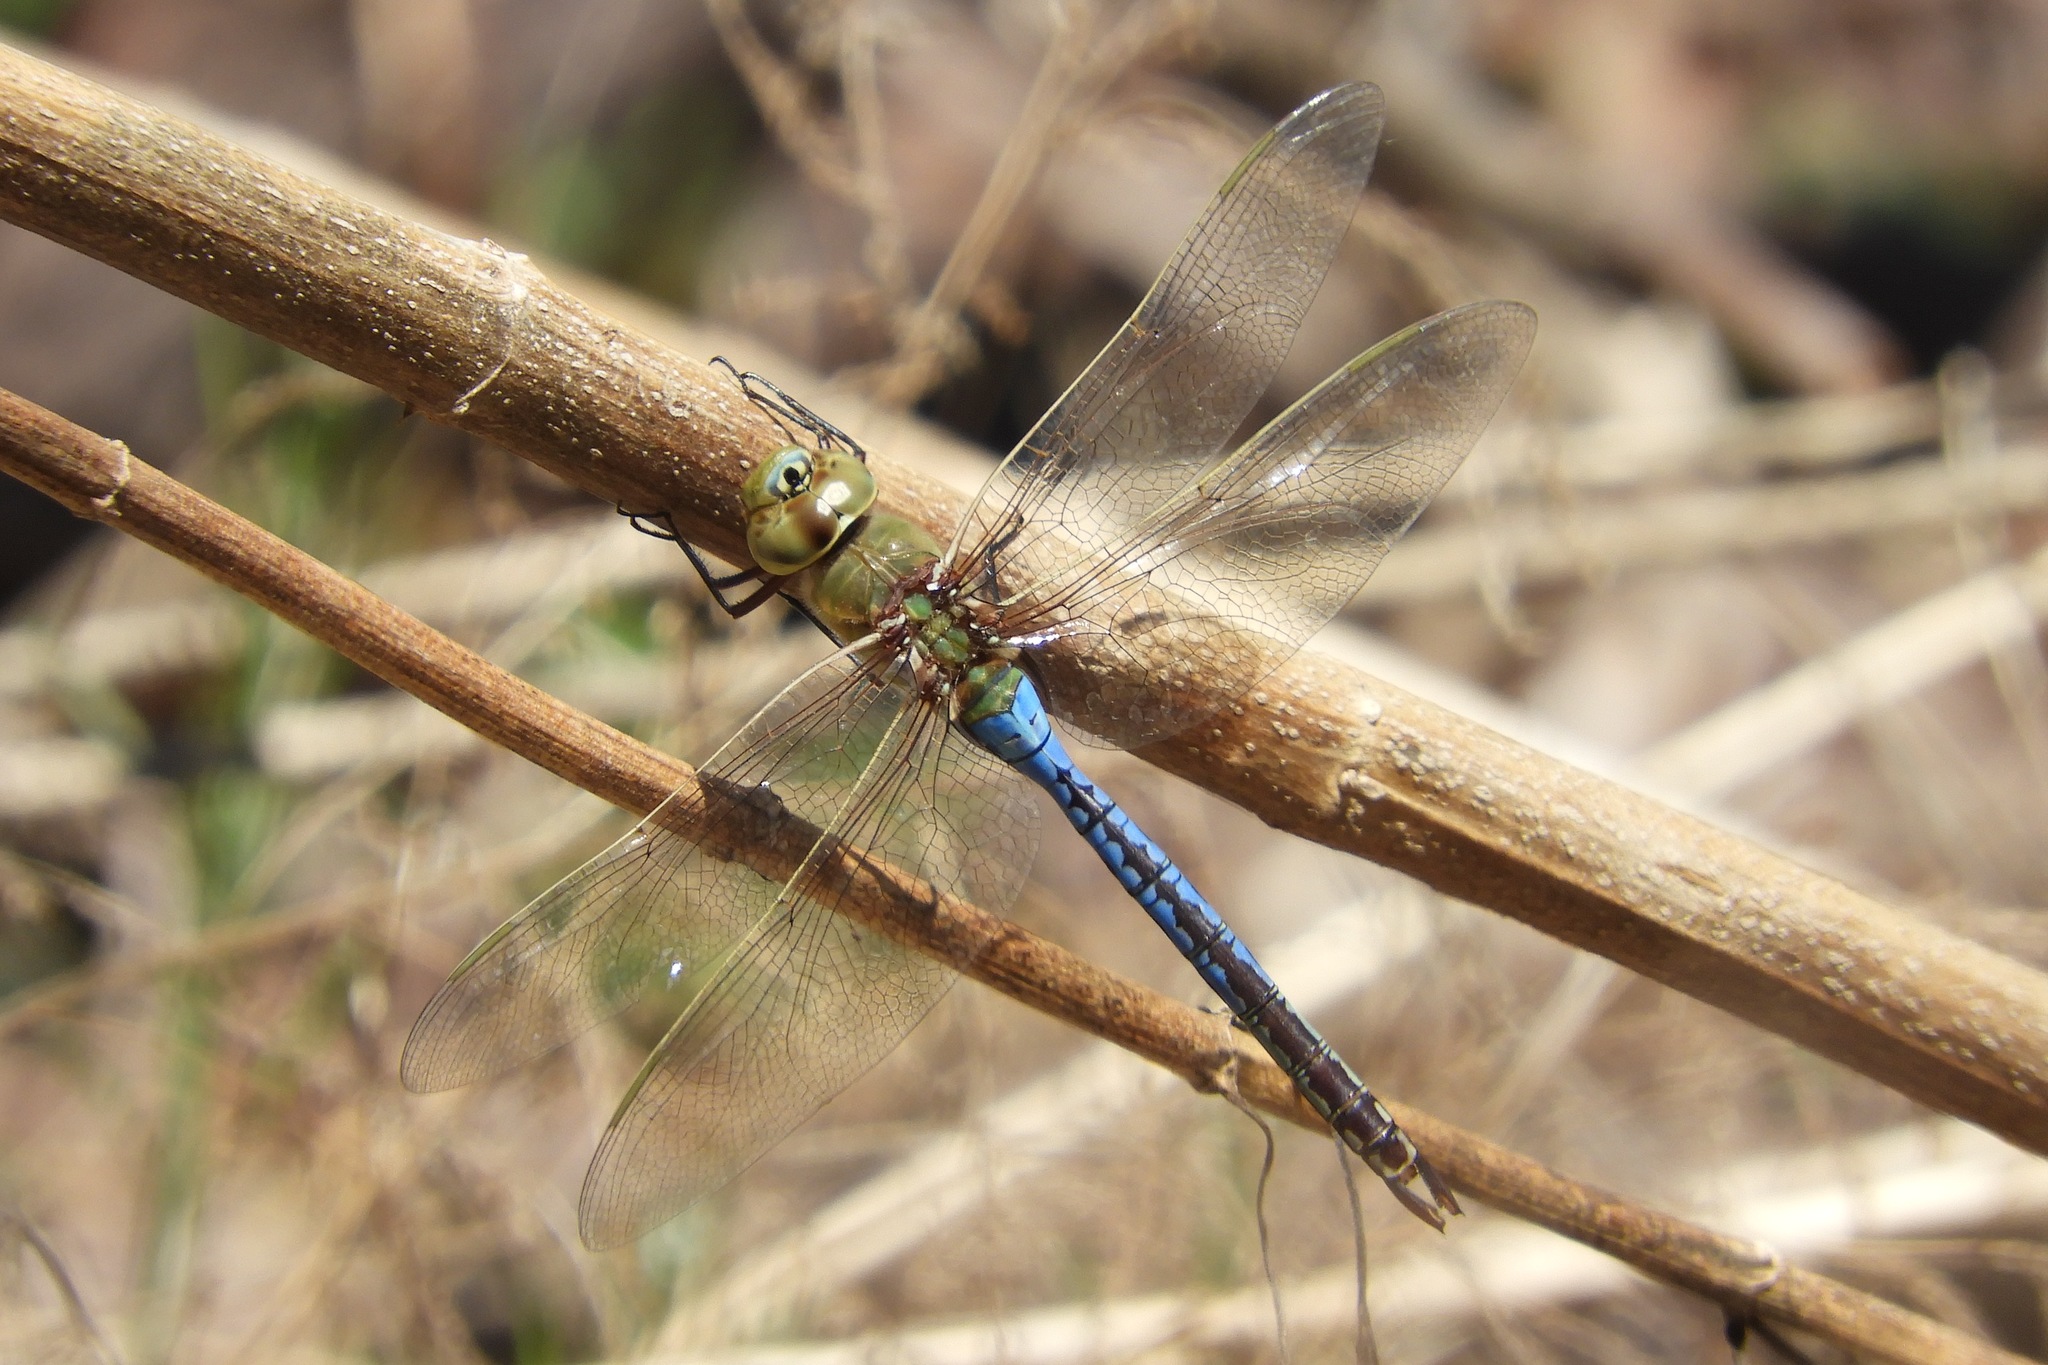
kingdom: Animalia
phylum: Arthropoda
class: Insecta
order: Odonata
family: Aeshnidae
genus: Anax
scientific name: Anax junius
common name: Common green darner
